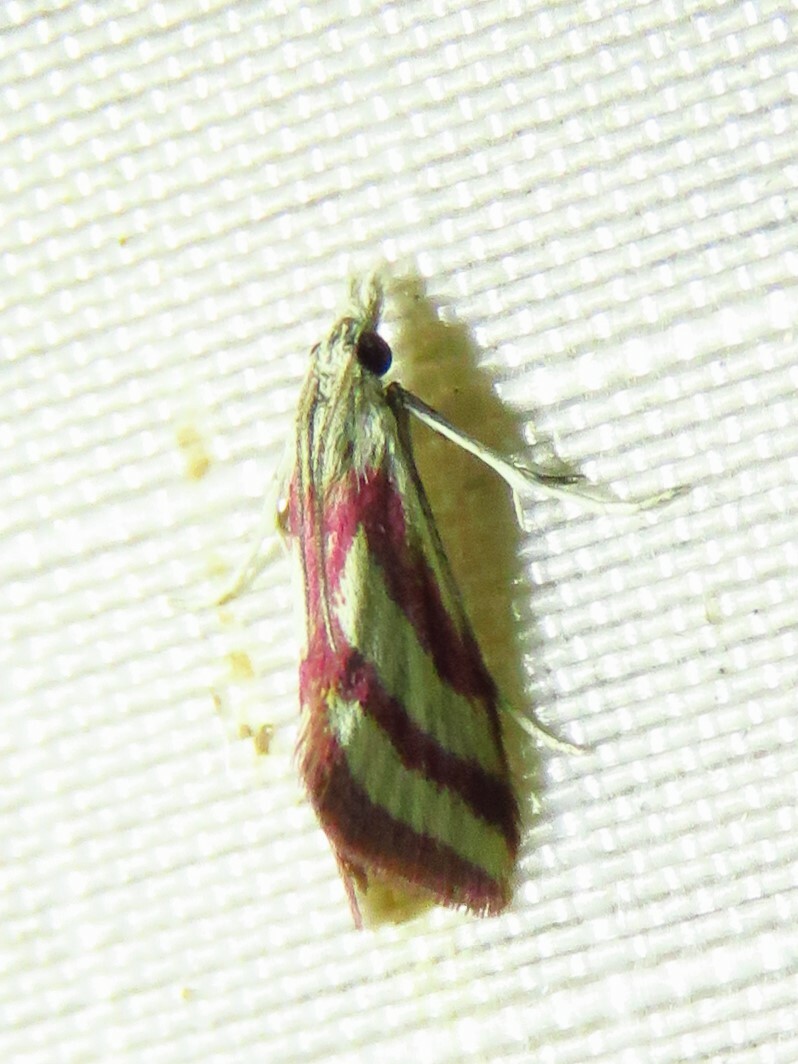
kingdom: Animalia
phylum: Arthropoda
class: Insecta
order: Lepidoptera
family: Crambidae
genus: Microtheoris
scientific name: Microtheoris vibicalis
